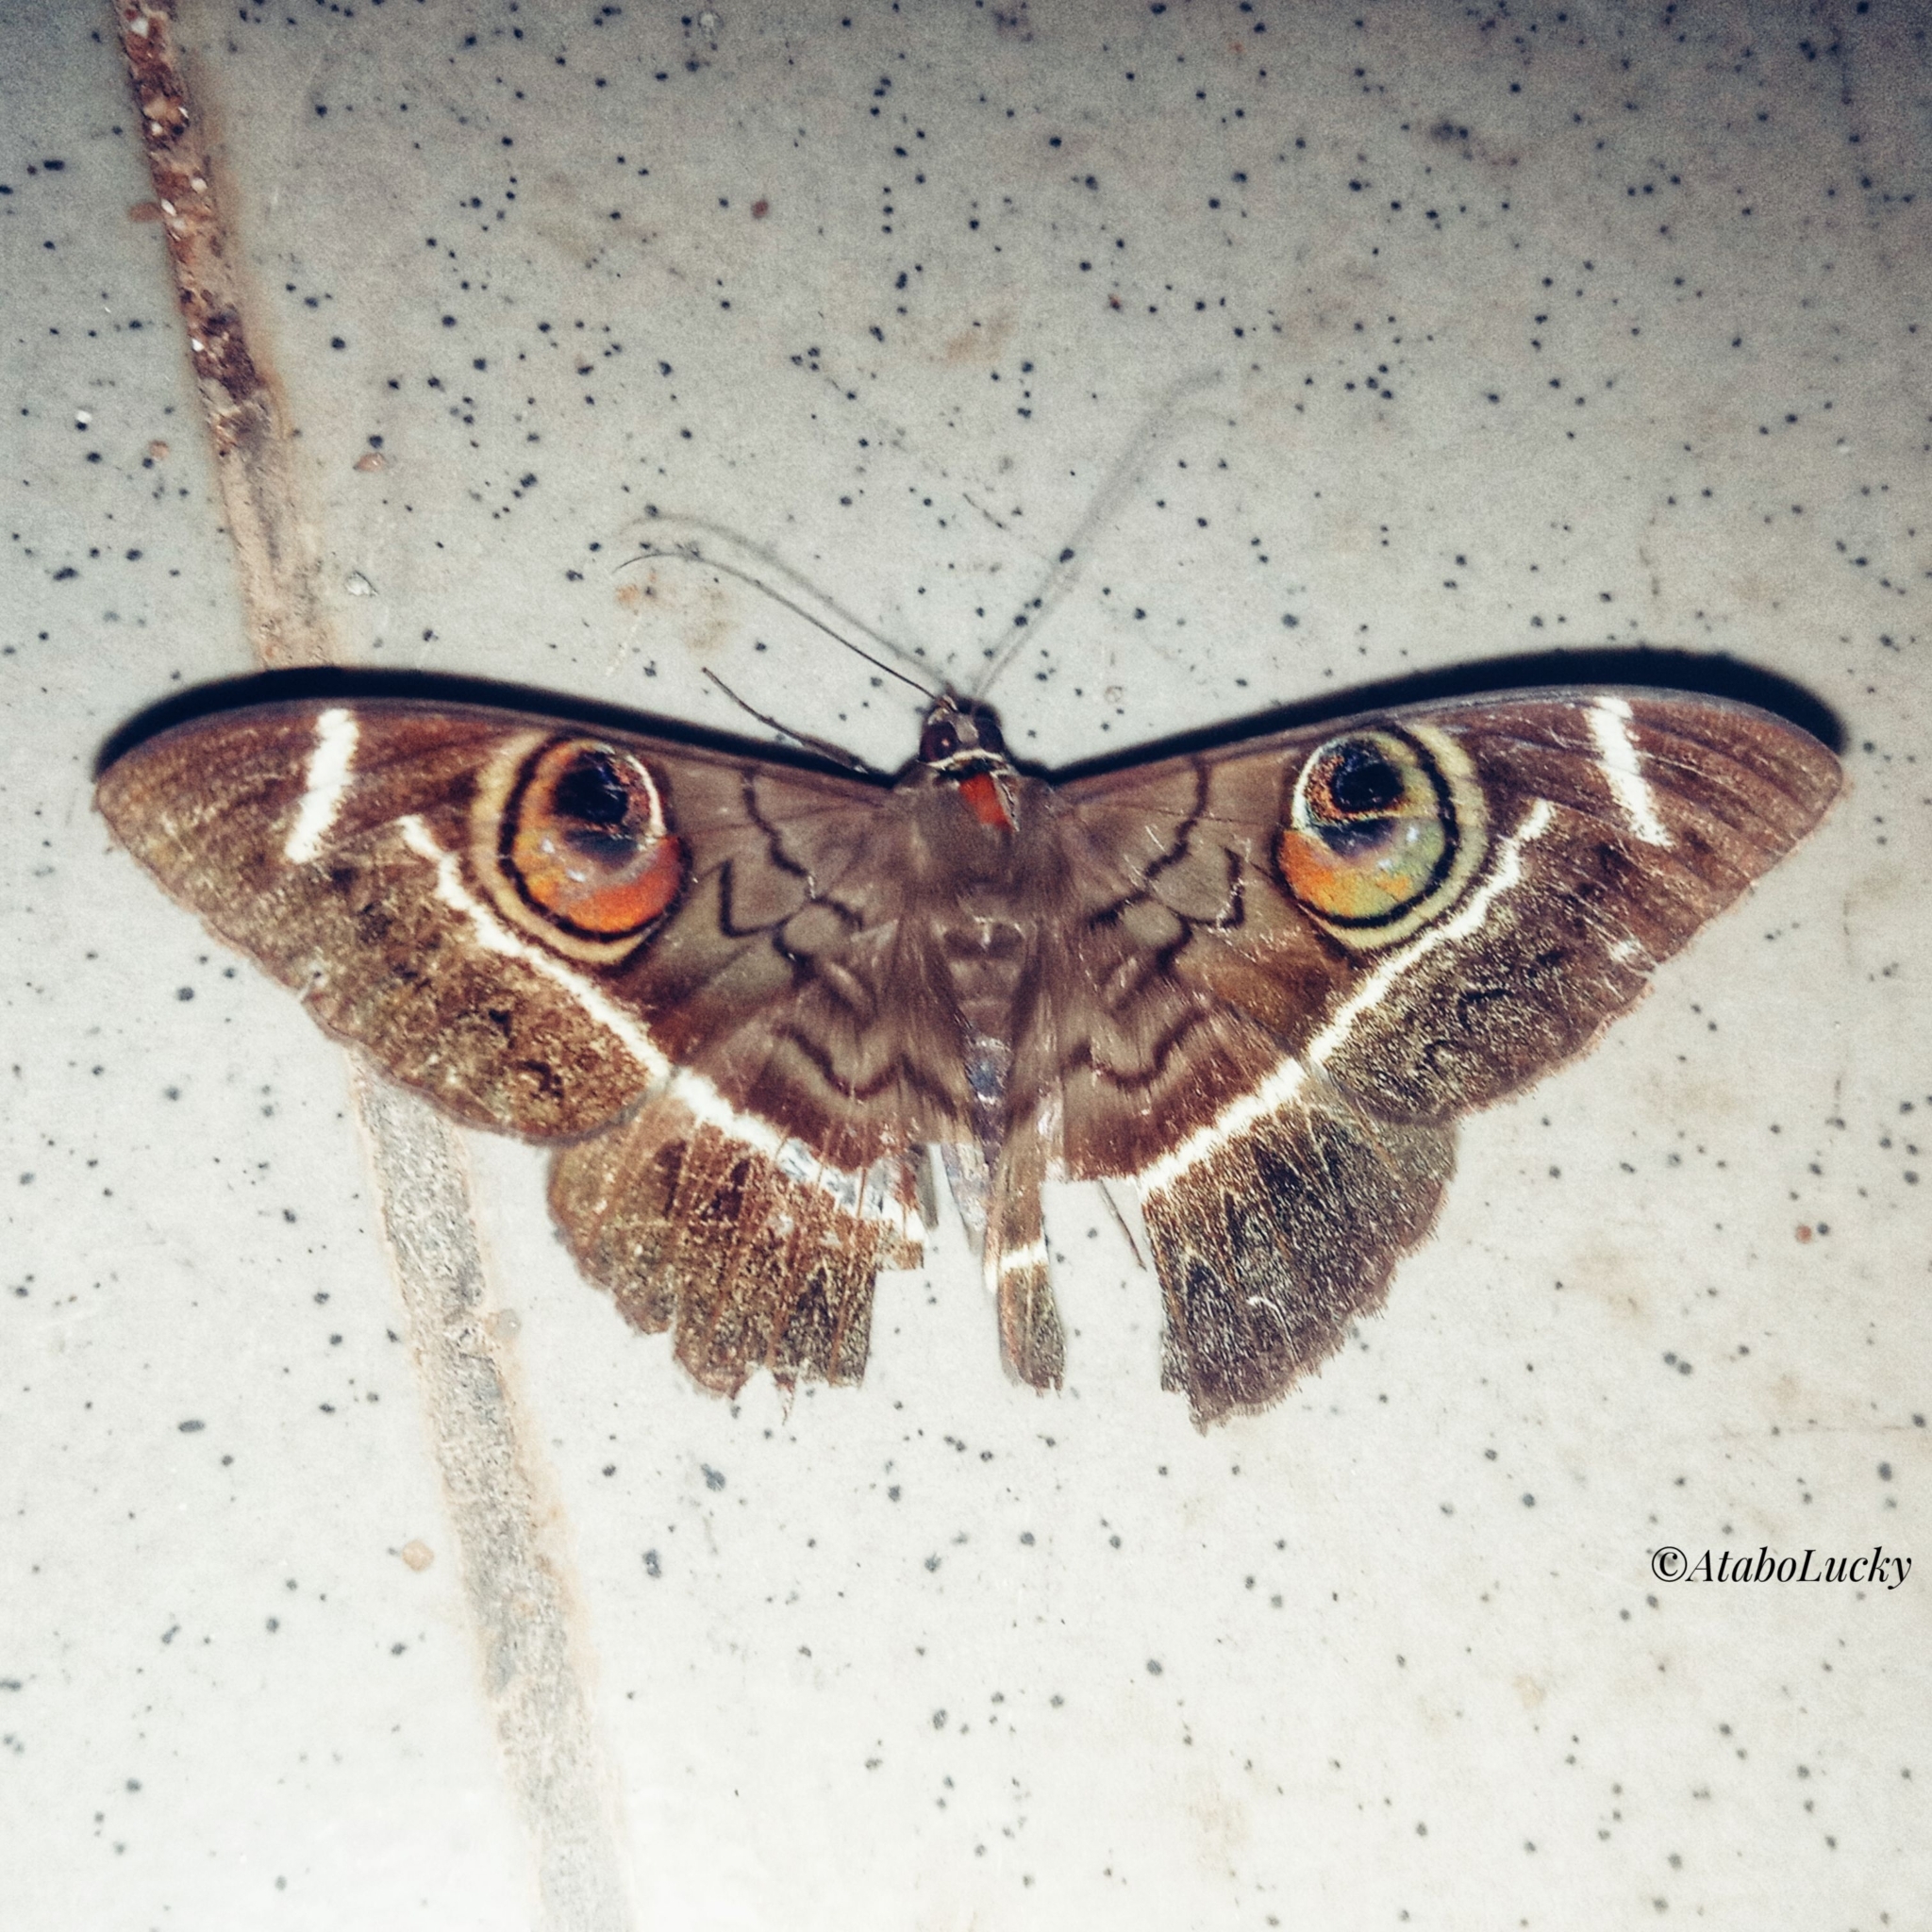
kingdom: Animalia
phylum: Arthropoda
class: Insecta
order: Lepidoptera
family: Erebidae
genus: Cyligramma
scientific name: Cyligramma latona
